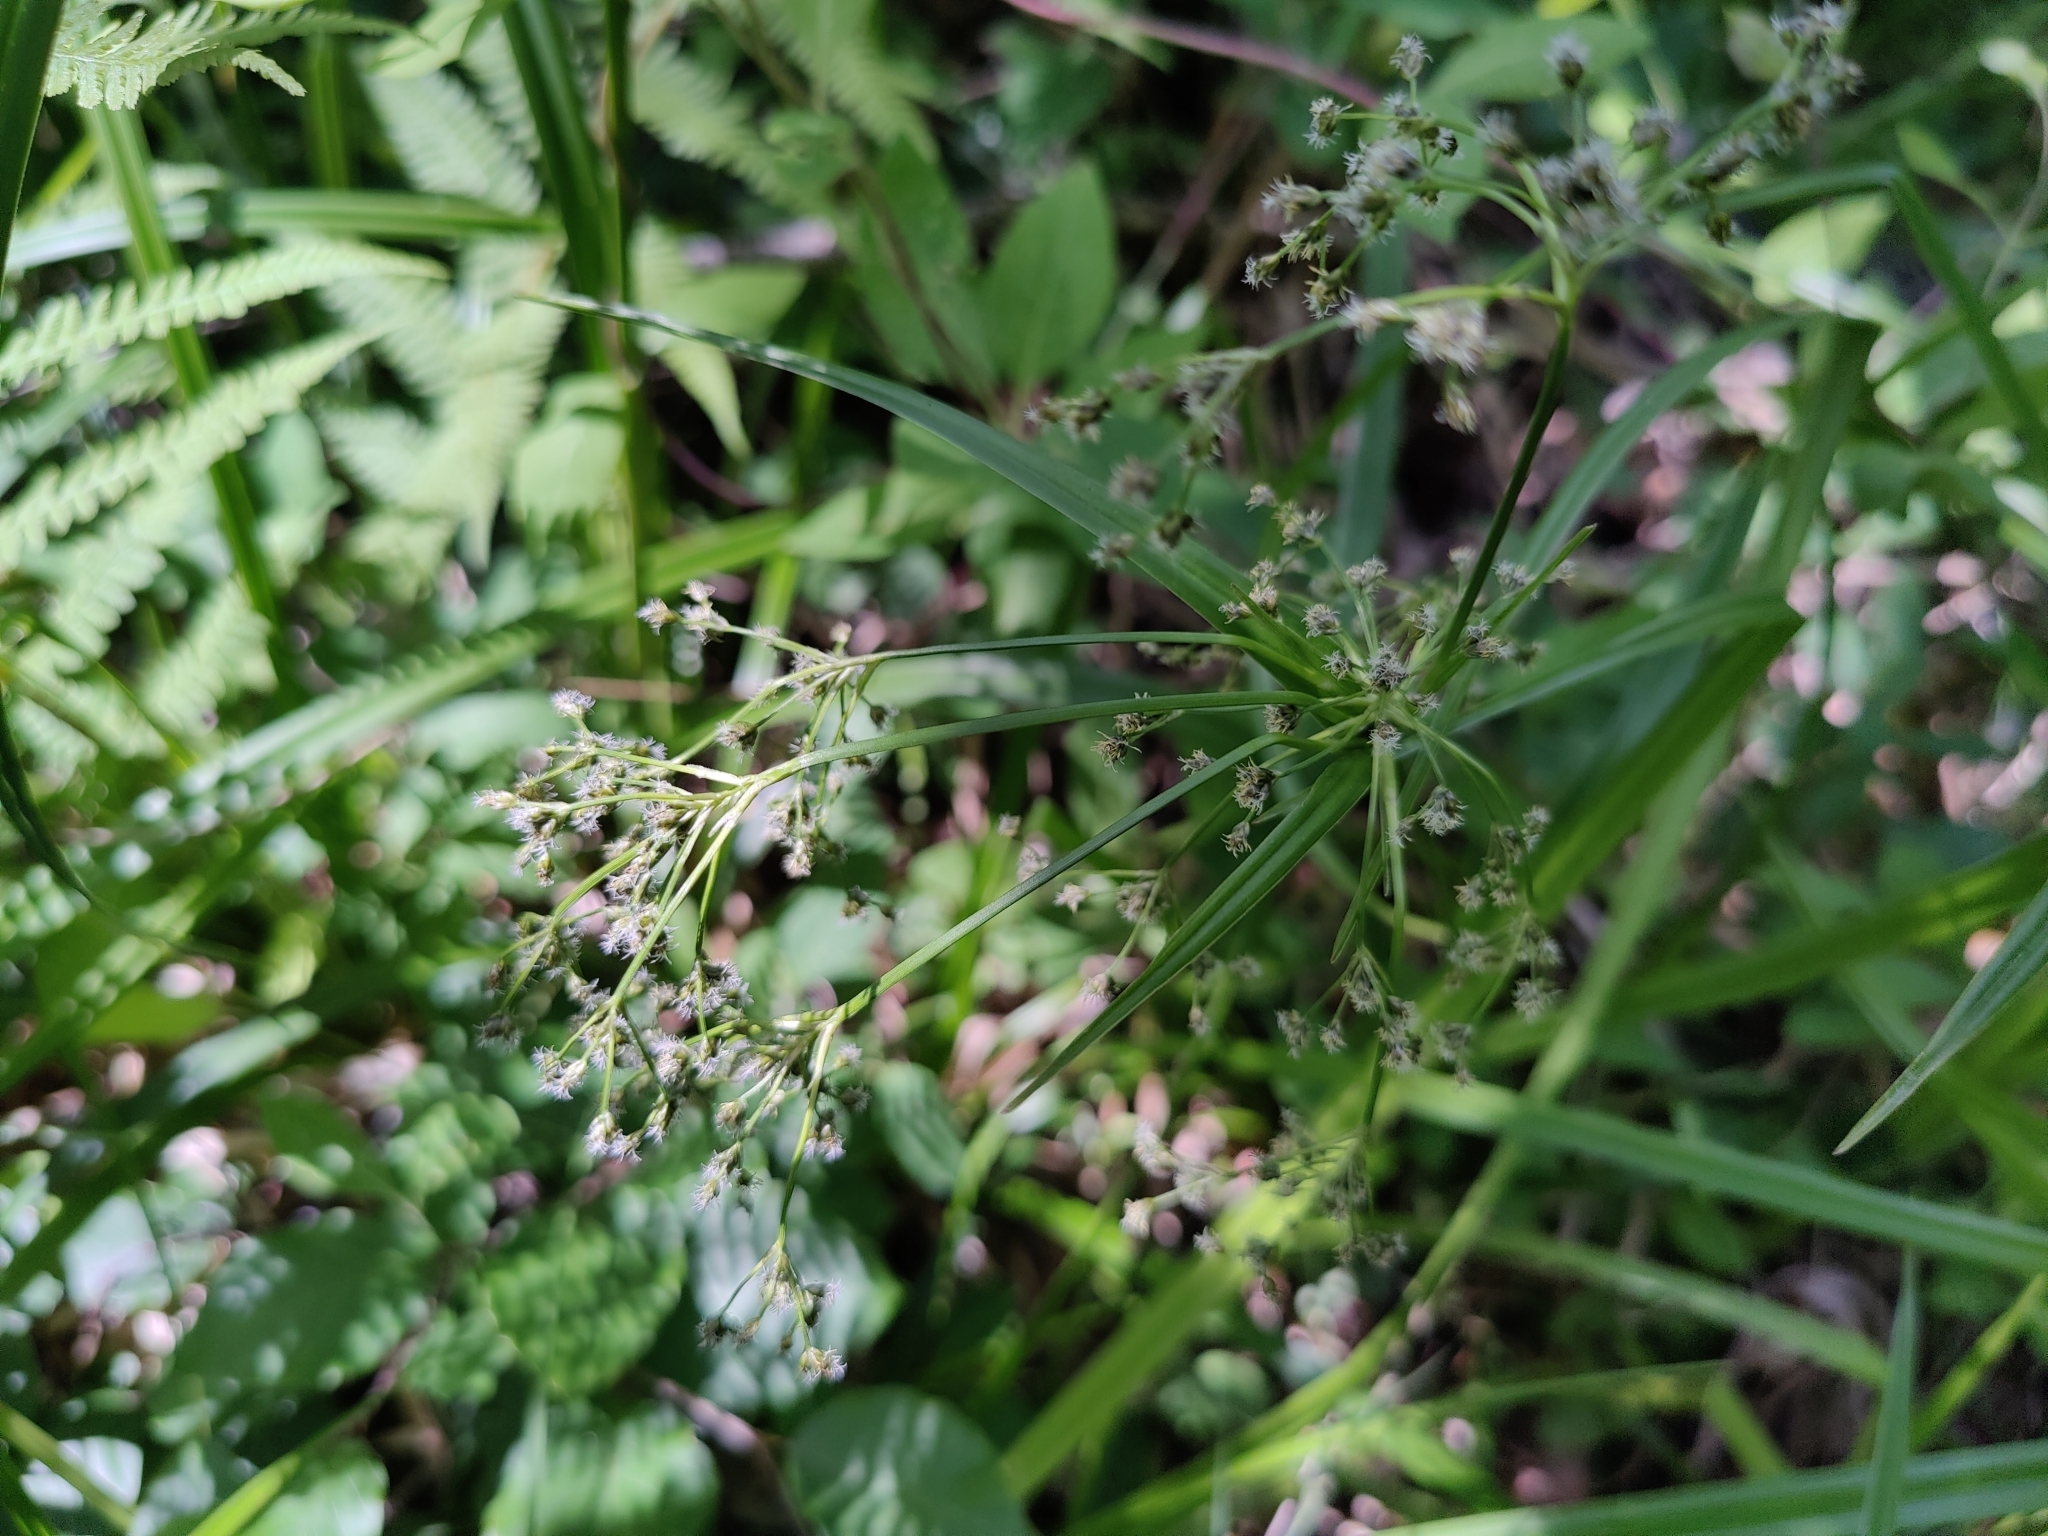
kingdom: Plantae
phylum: Tracheophyta
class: Liliopsida
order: Poales
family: Cyperaceae
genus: Scirpus
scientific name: Scirpus sylvaticus
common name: Wood club-rush
